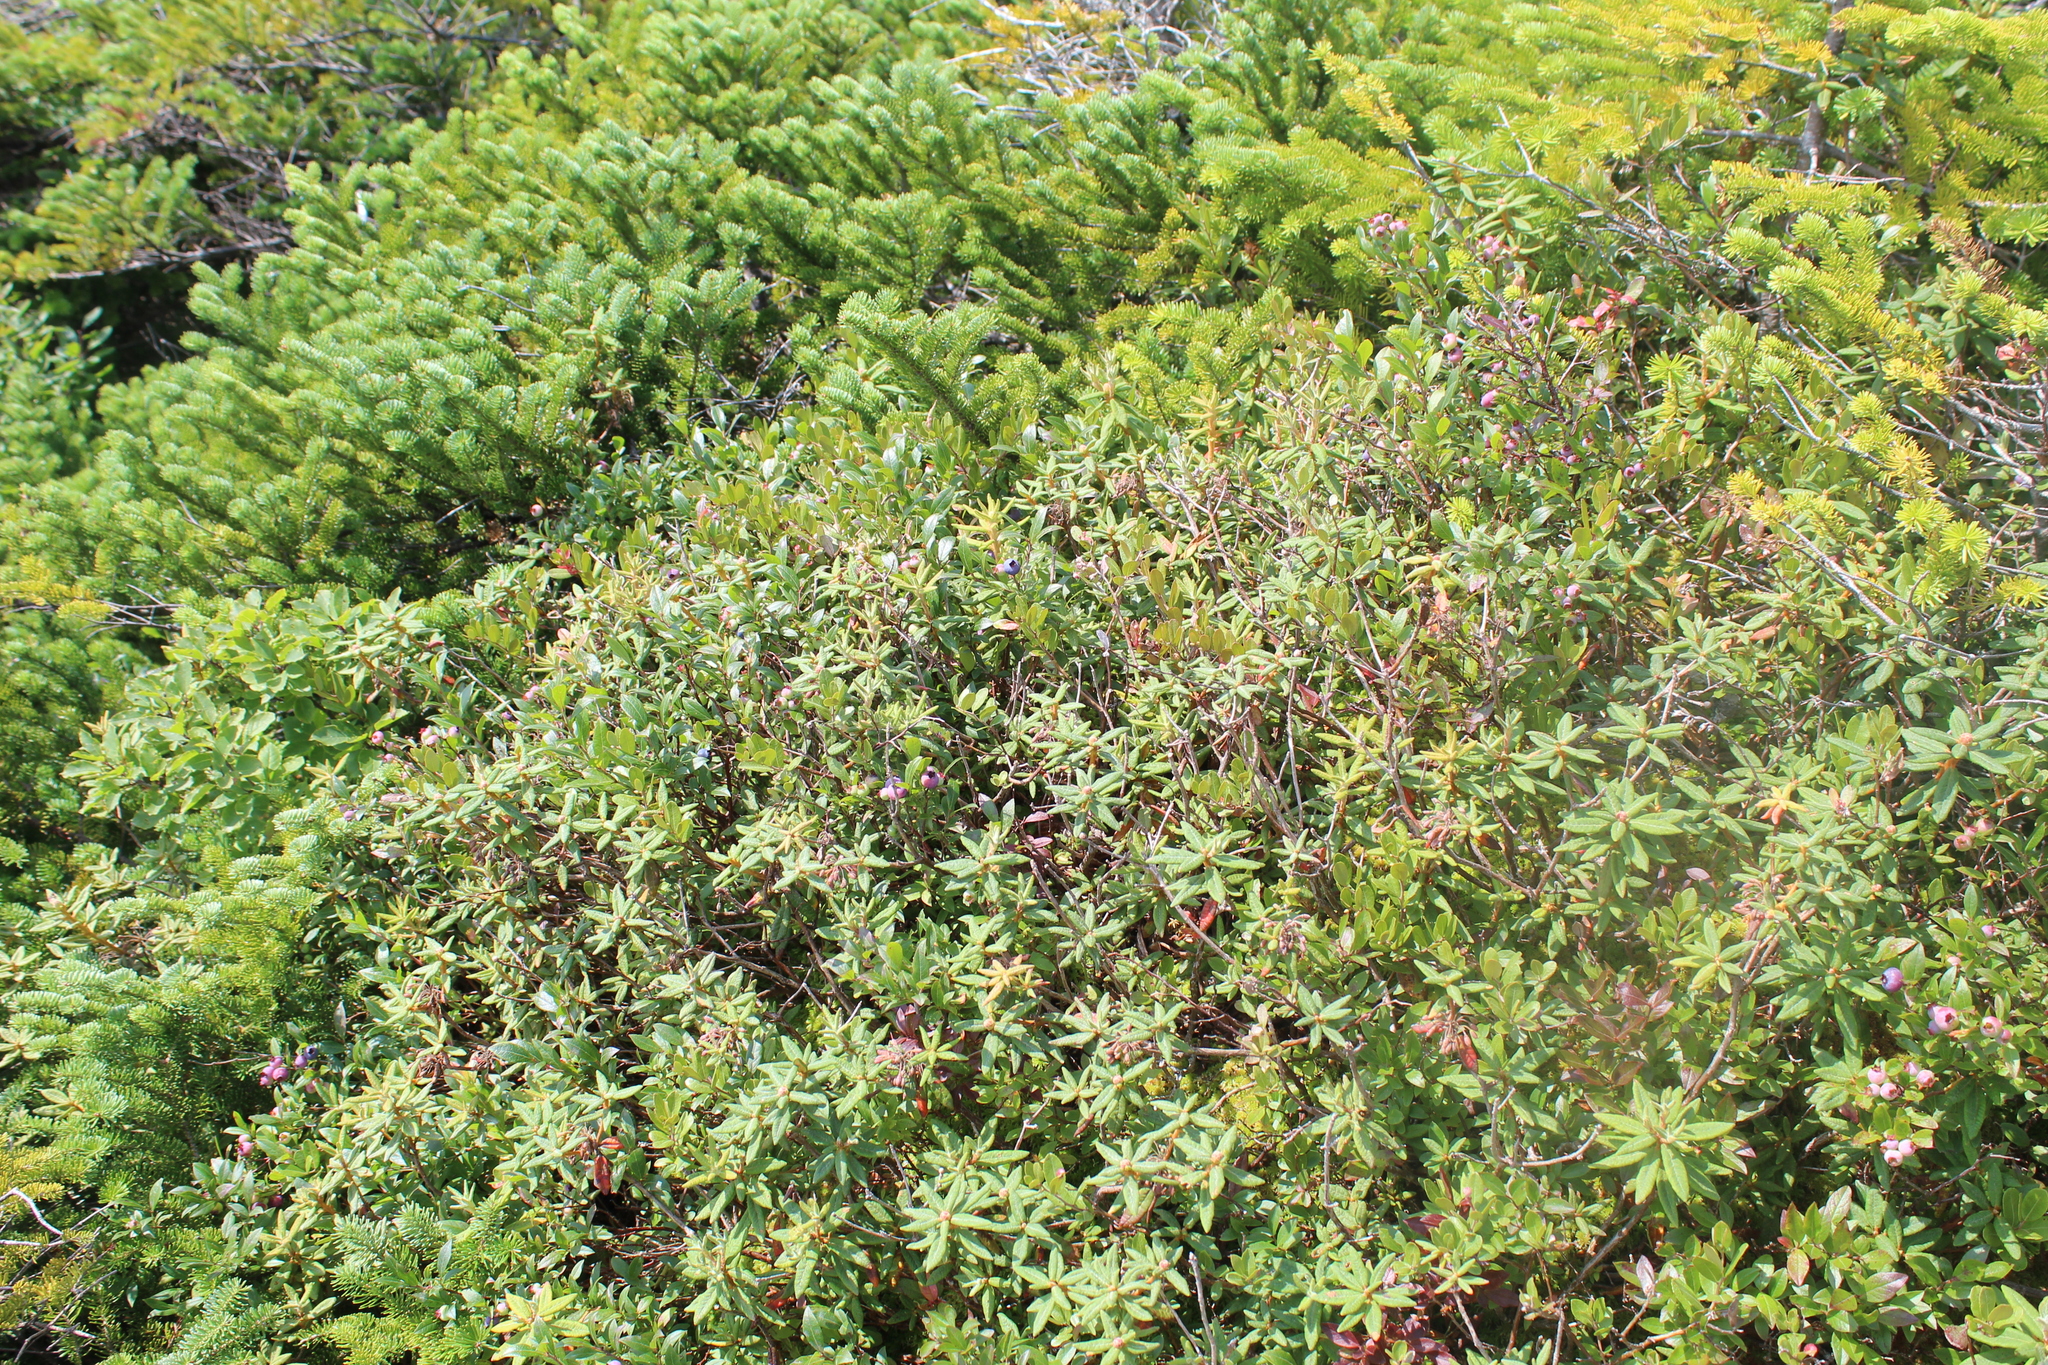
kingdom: Plantae
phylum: Tracheophyta
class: Magnoliopsida
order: Ericales
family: Ericaceae
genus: Rhododendron
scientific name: Rhododendron groenlandicum
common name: Bog labrador tea
